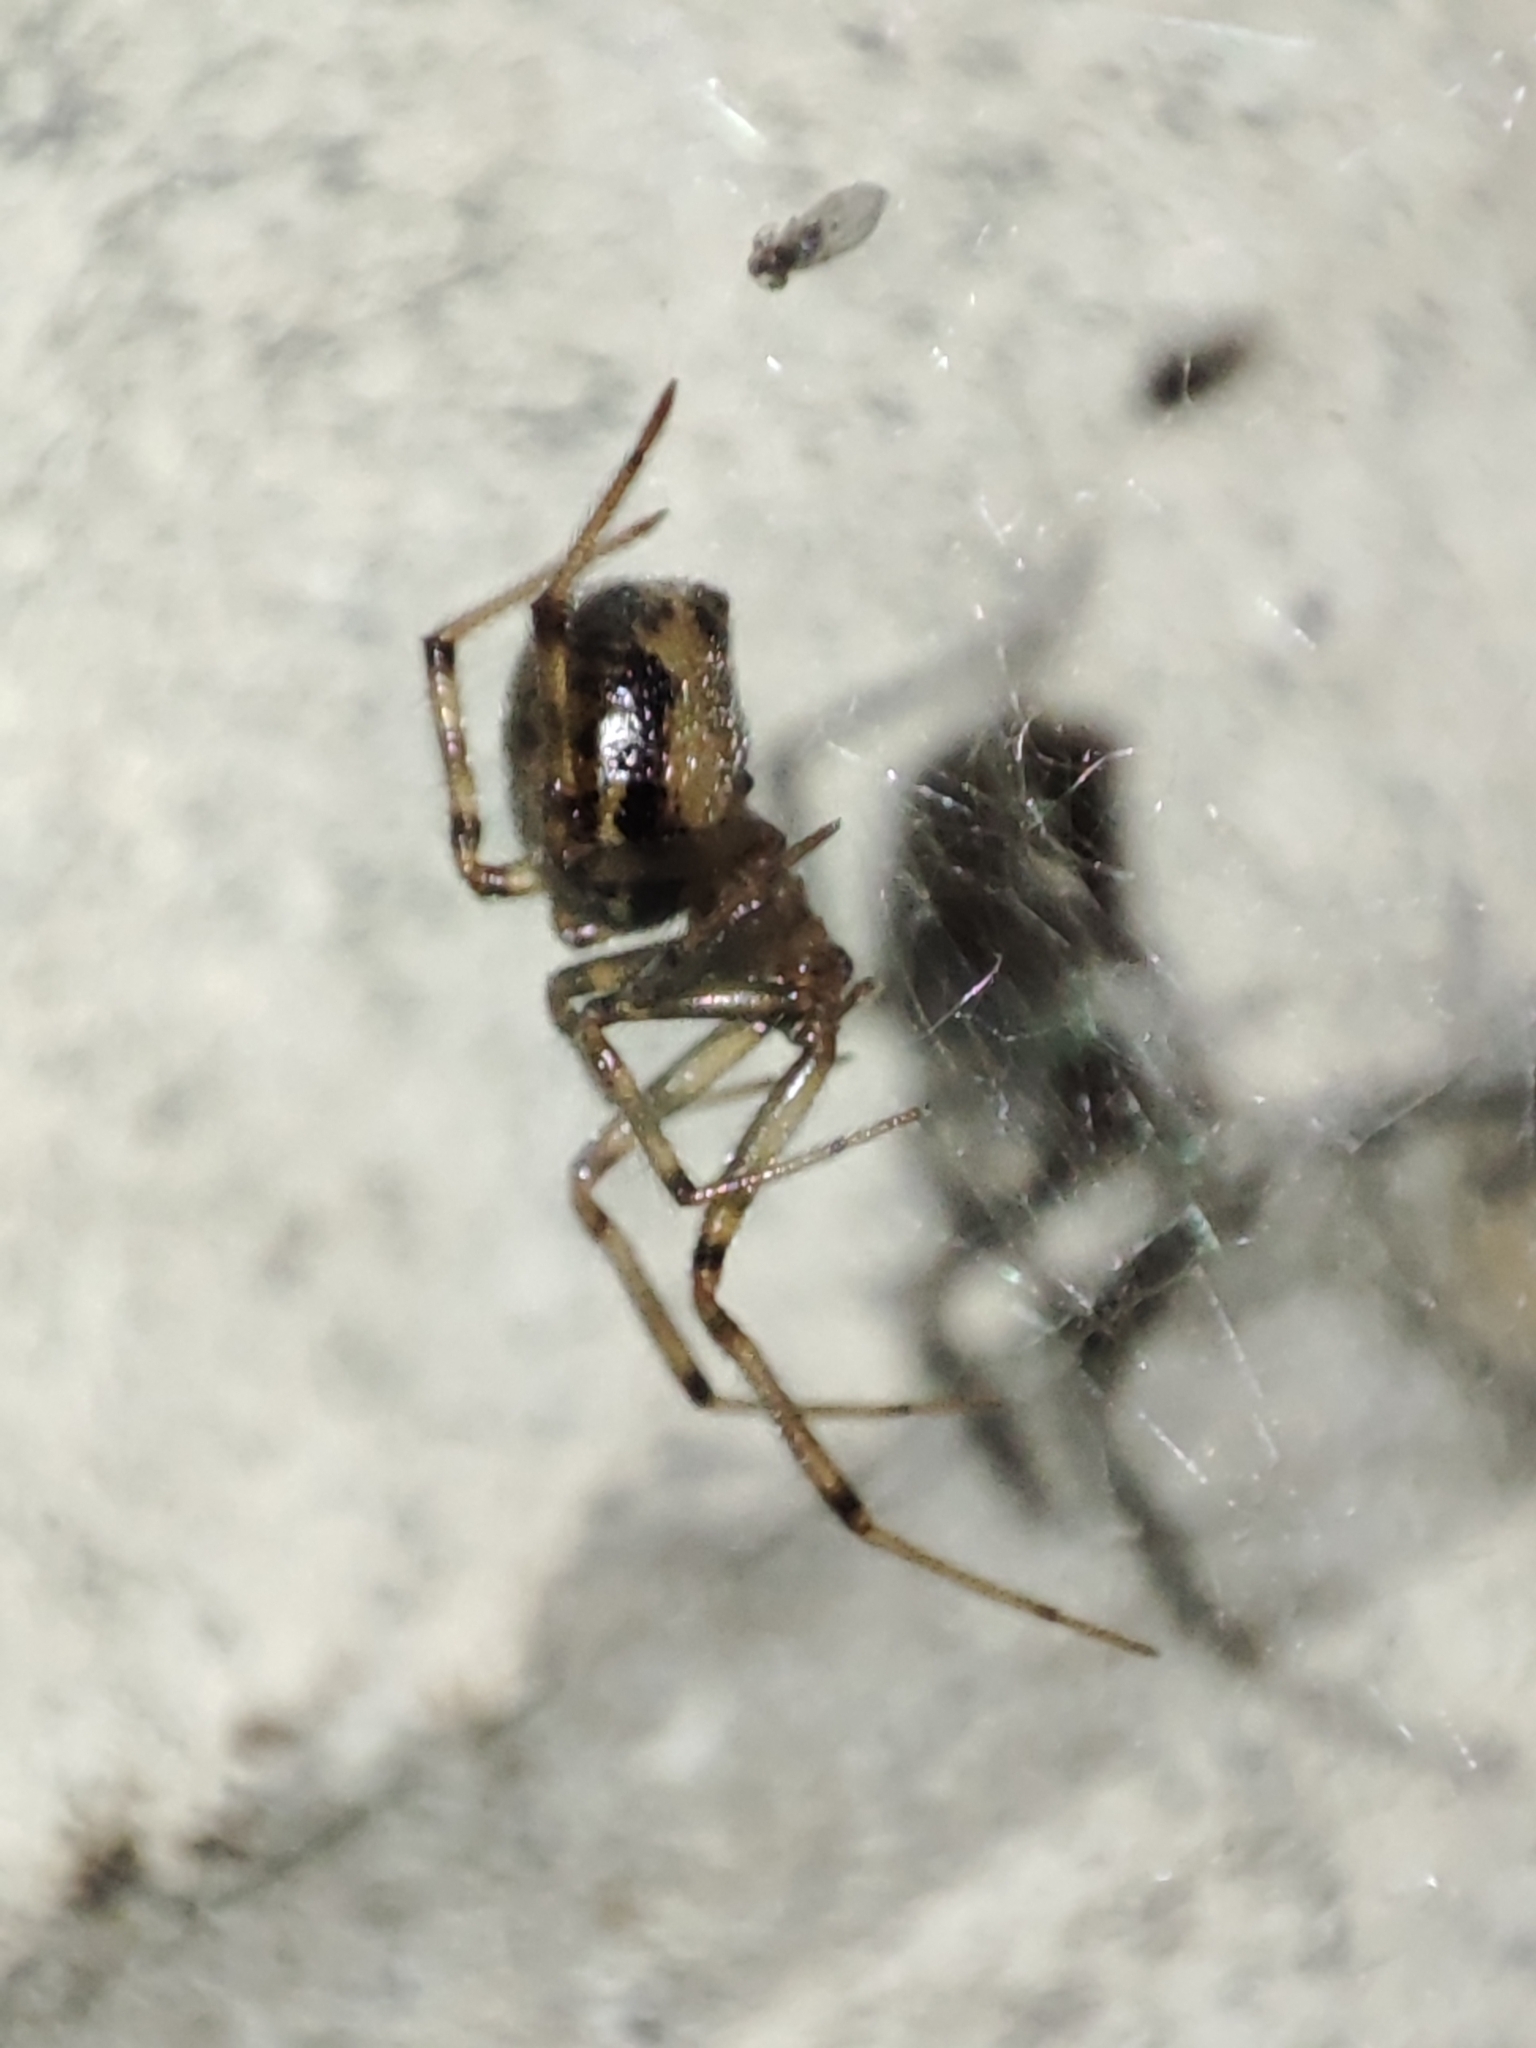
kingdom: Animalia
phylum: Arthropoda
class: Arachnida
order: Araneae
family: Theridiidae
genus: Steatoda
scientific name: Steatoda castanea
